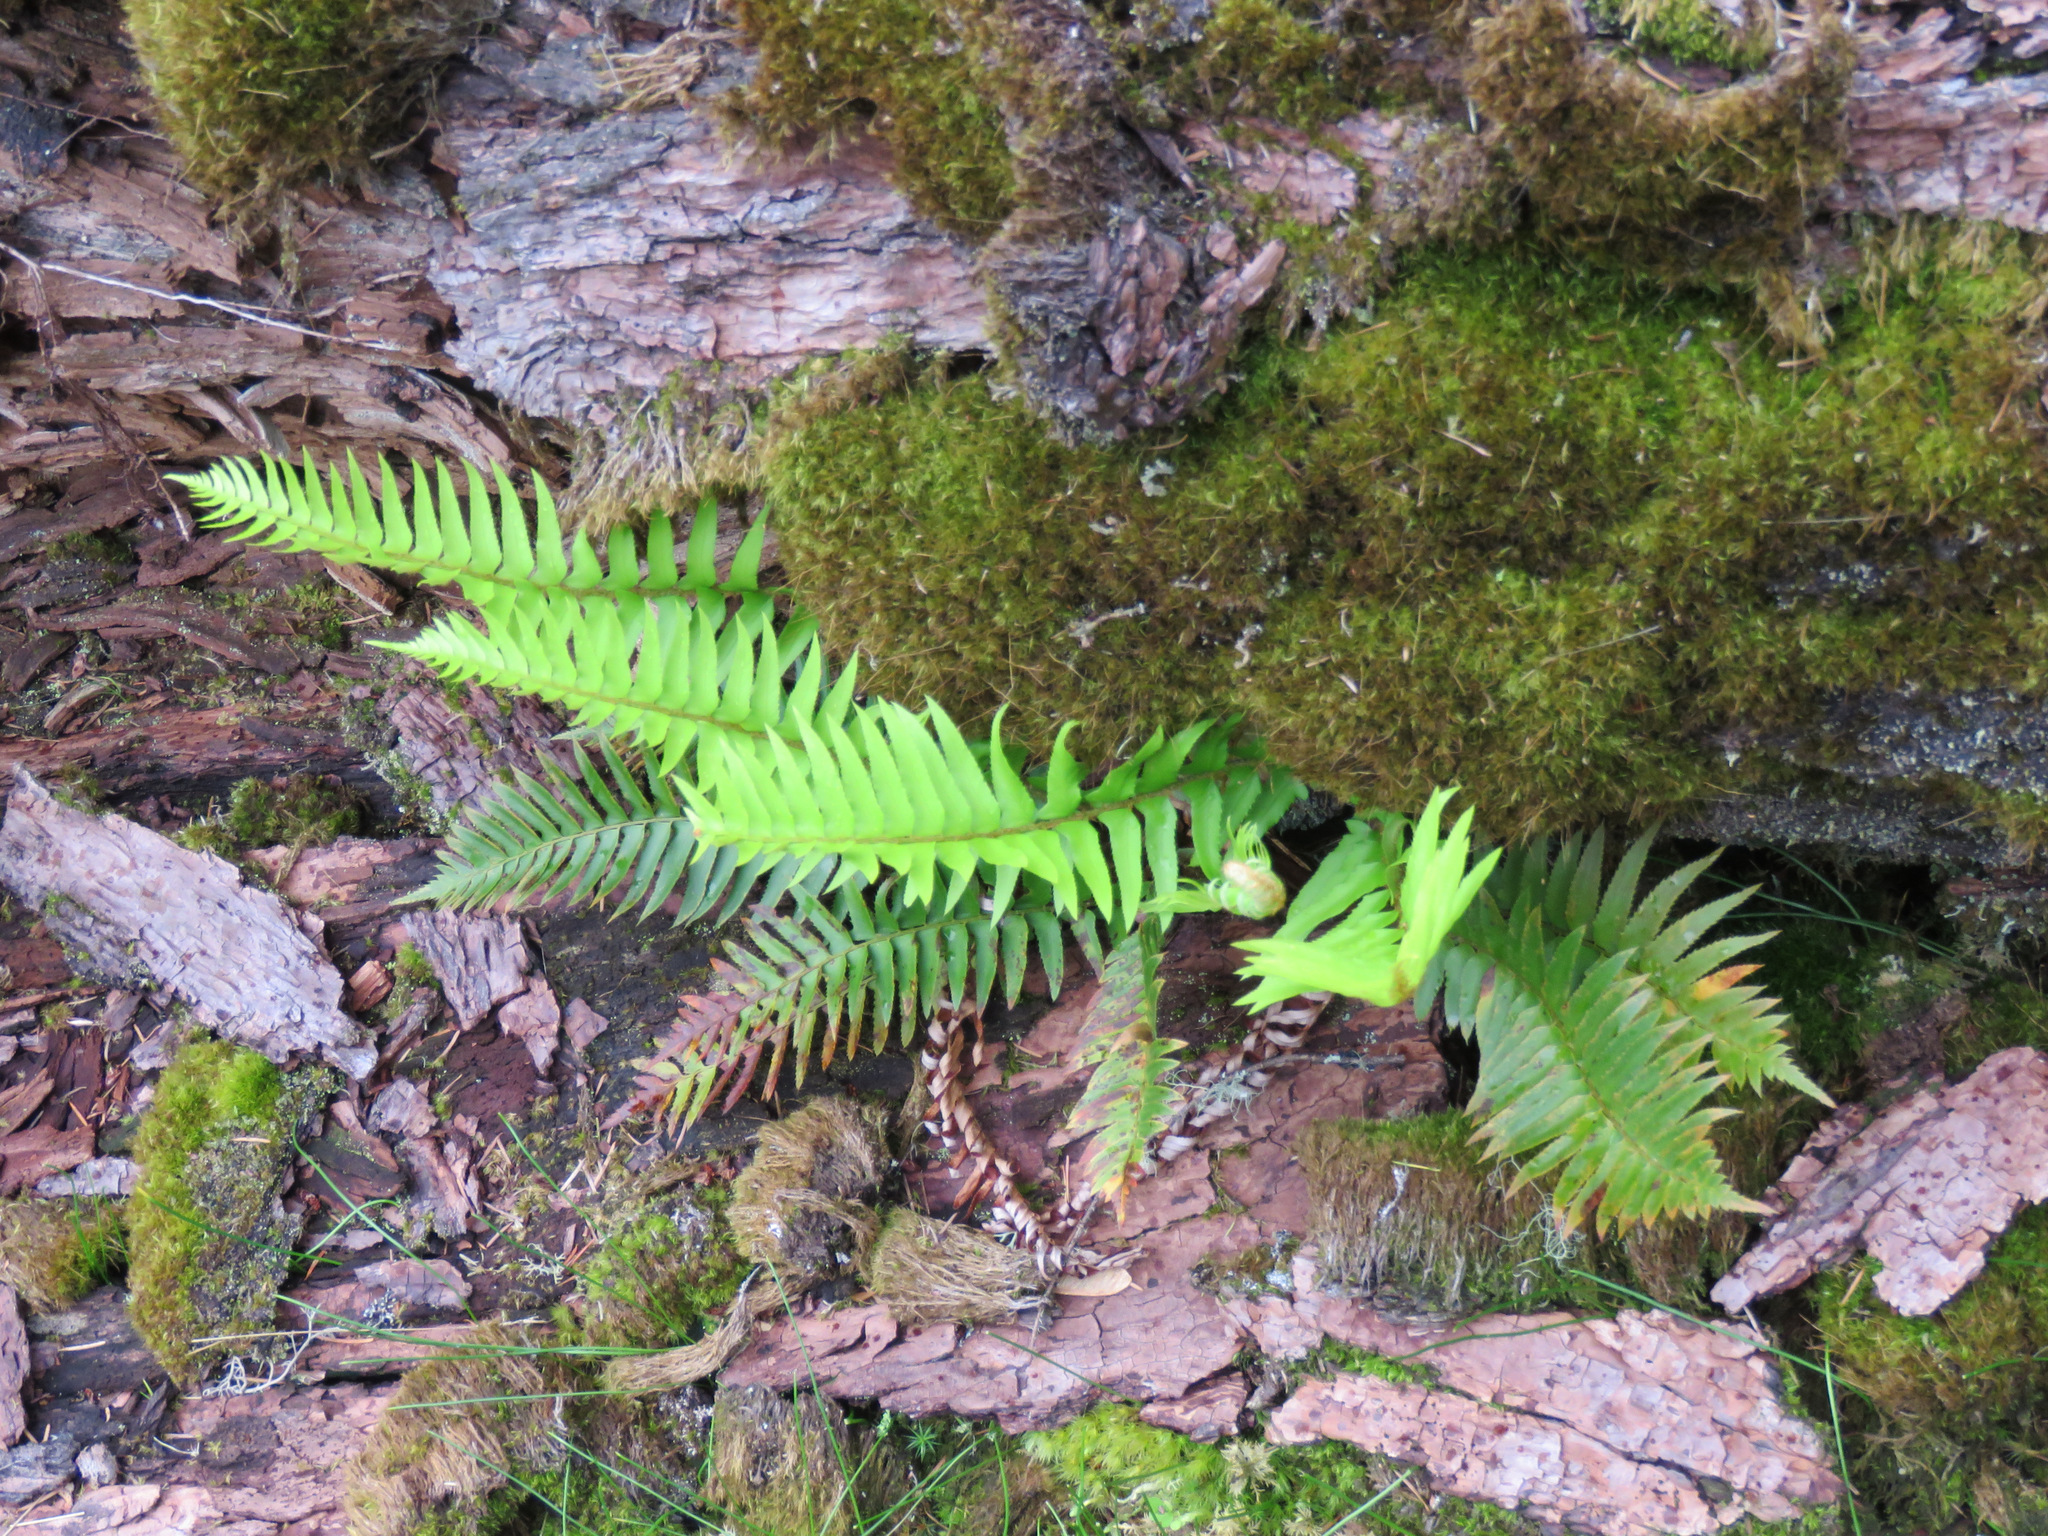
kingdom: Plantae
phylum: Tracheophyta
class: Polypodiopsida
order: Polypodiales
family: Dryopteridaceae
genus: Polystichum
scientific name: Polystichum munitum
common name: Western sword-fern
